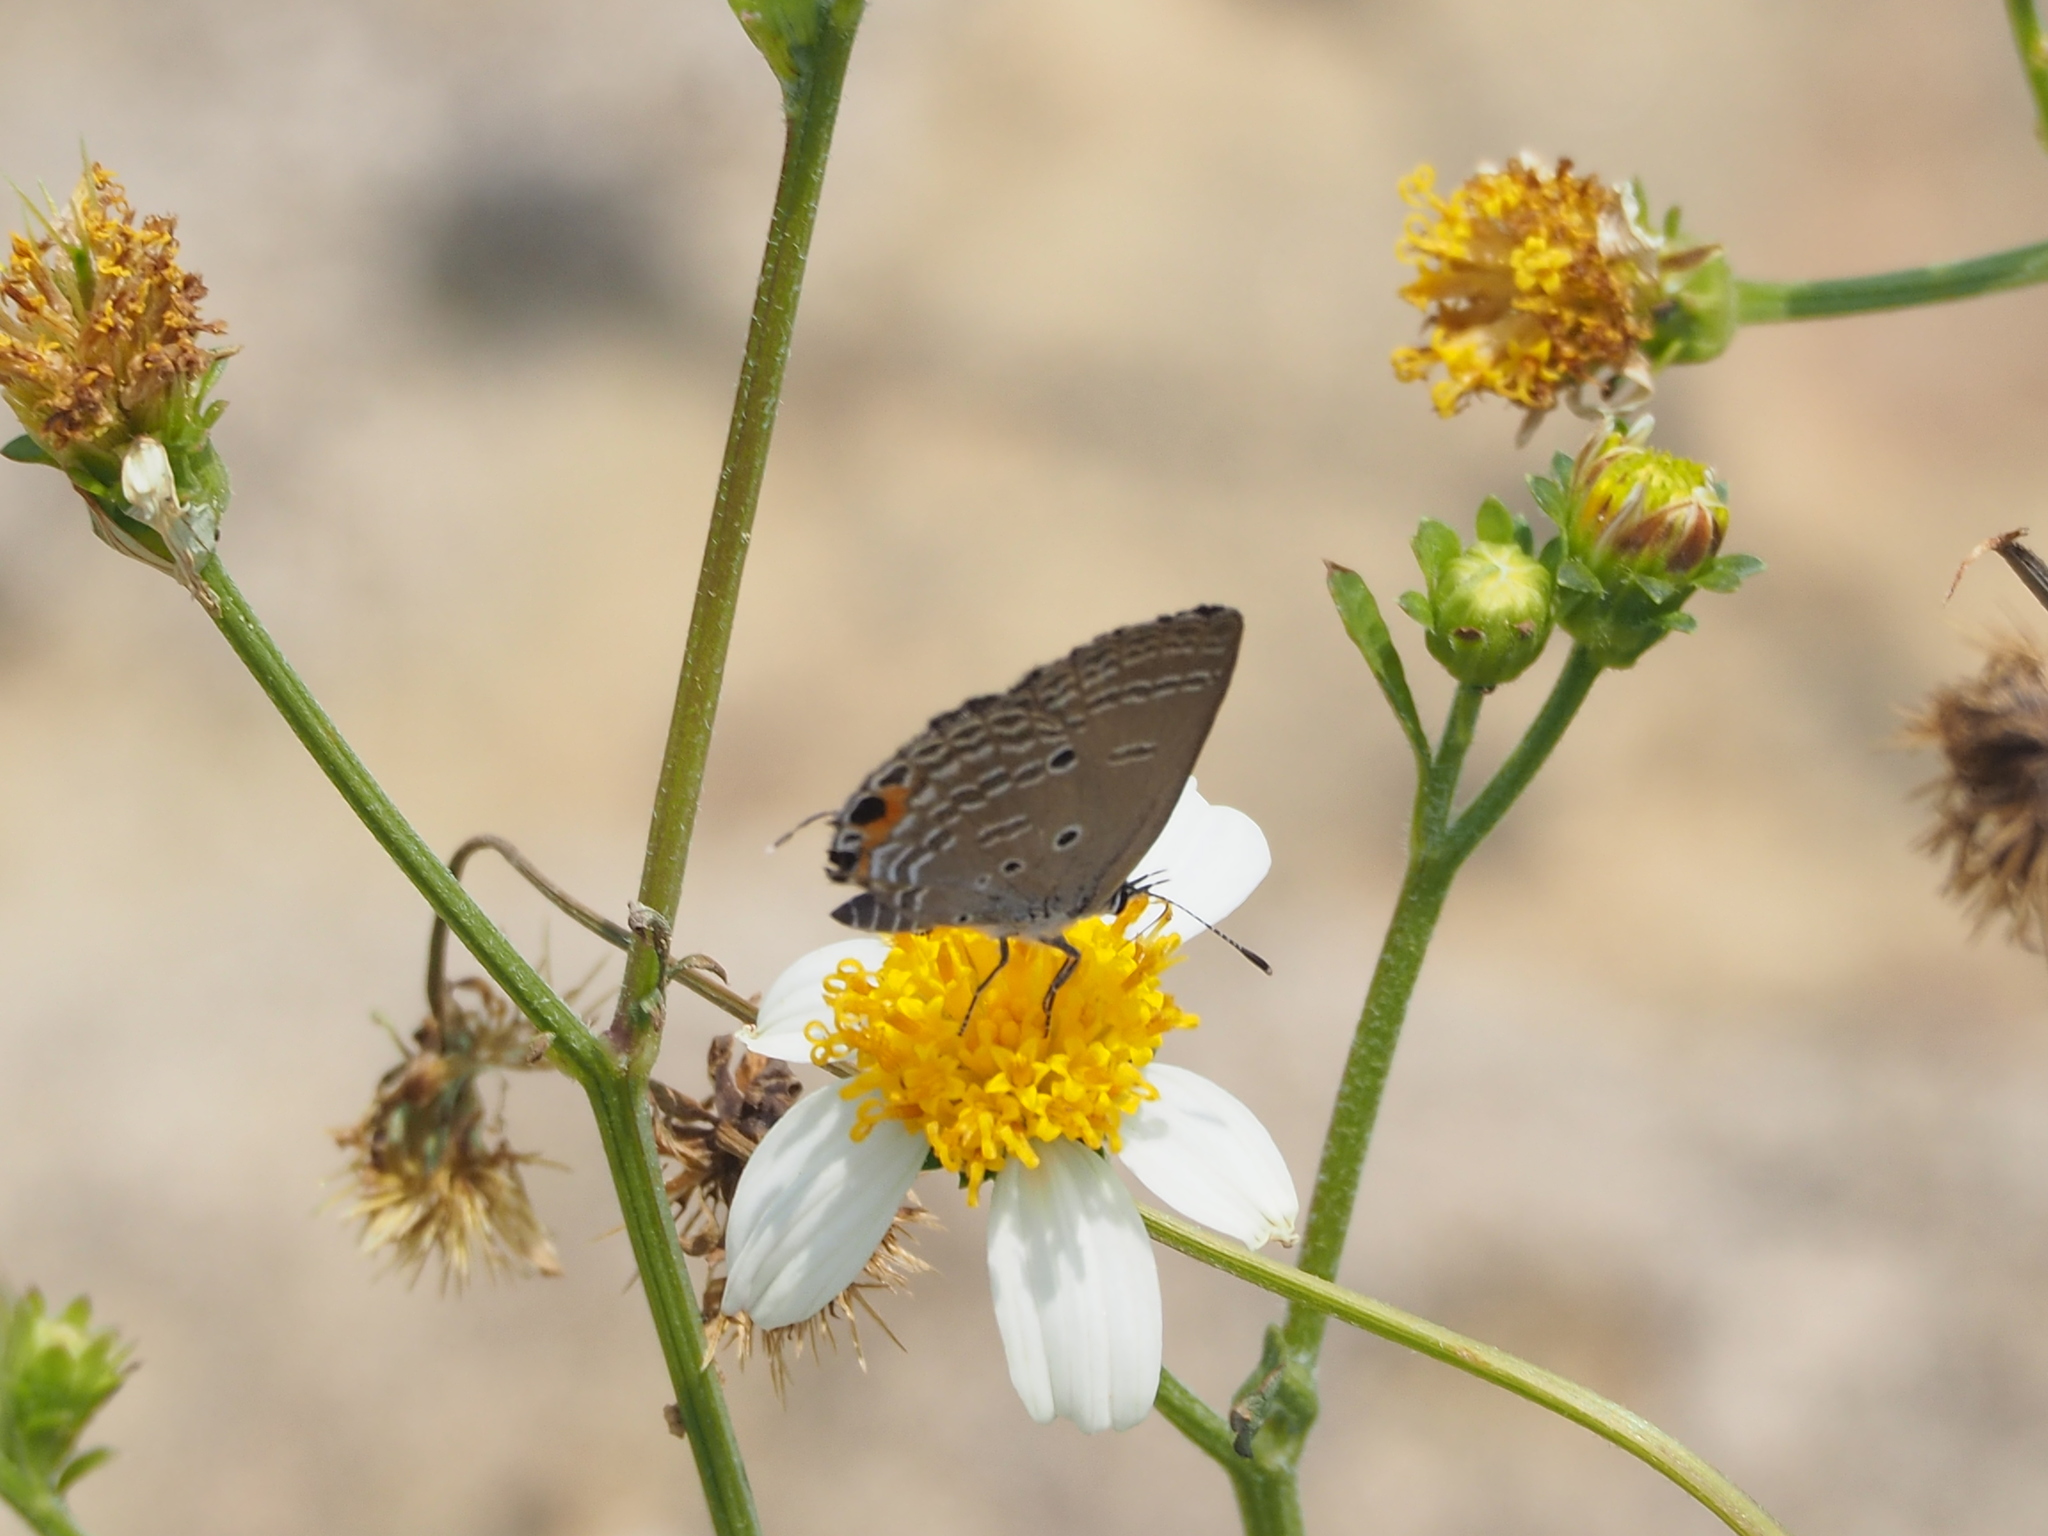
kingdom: Animalia
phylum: Arthropoda
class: Insecta
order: Lepidoptera
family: Lycaenidae
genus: Luthrodes
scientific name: Luthrodes pandava
